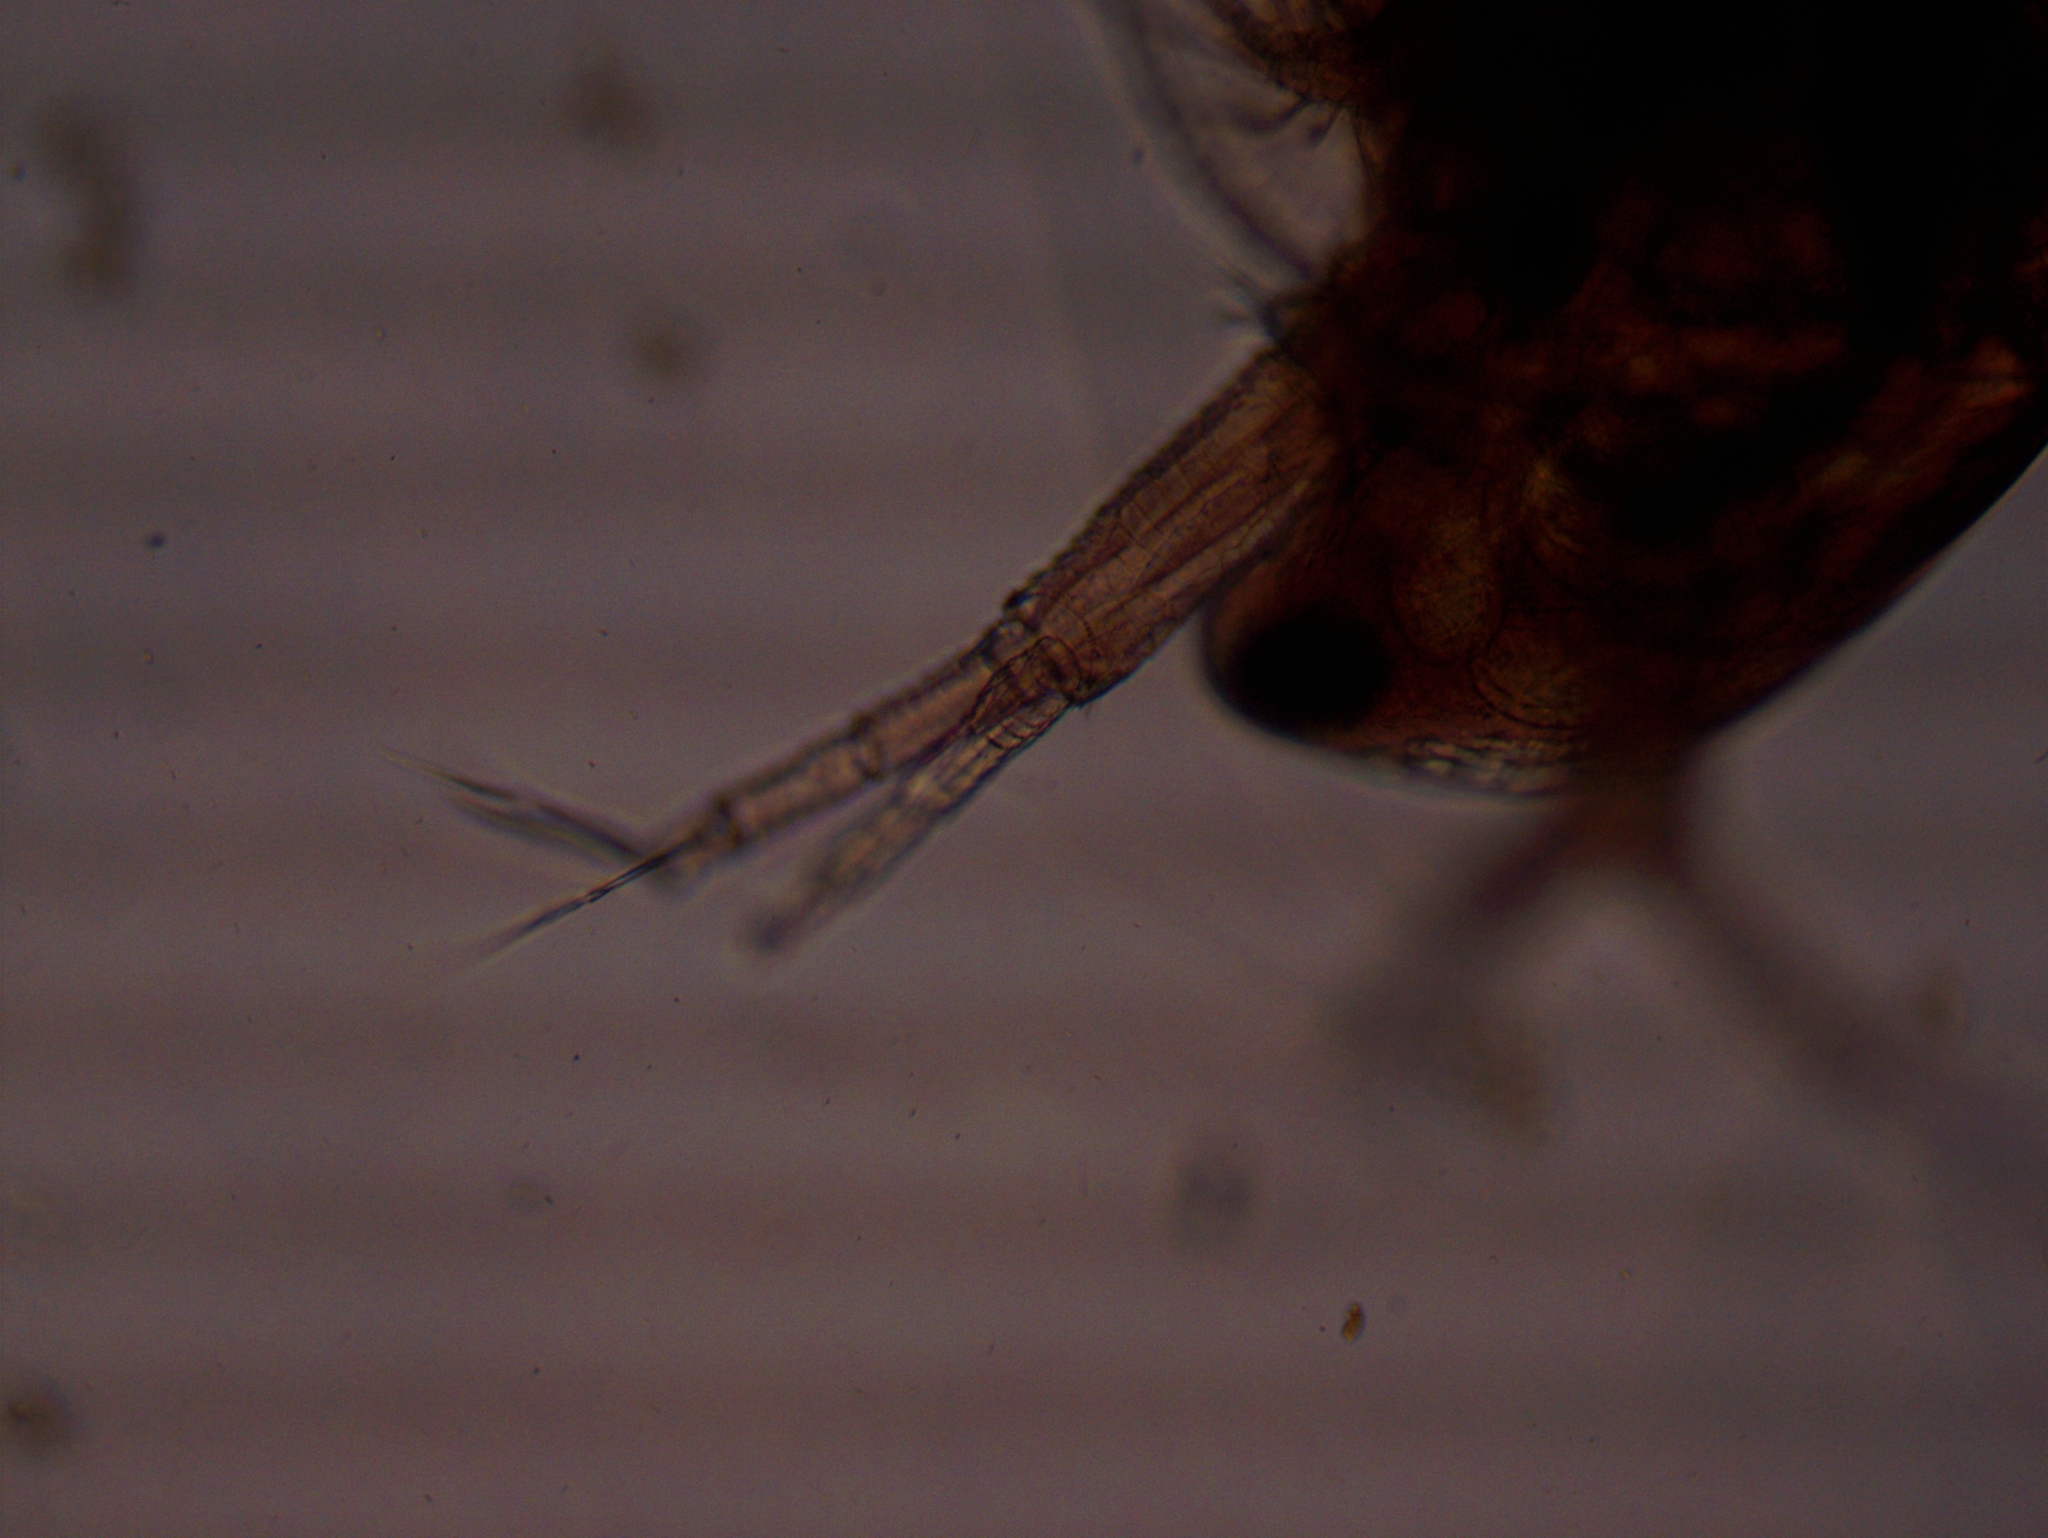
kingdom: Animalia
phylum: Arthropoda
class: Branchiopoda
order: Diplostraca
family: Daphniidae
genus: Simocephalus
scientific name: Simocephalus serrulatus
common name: Water flea
